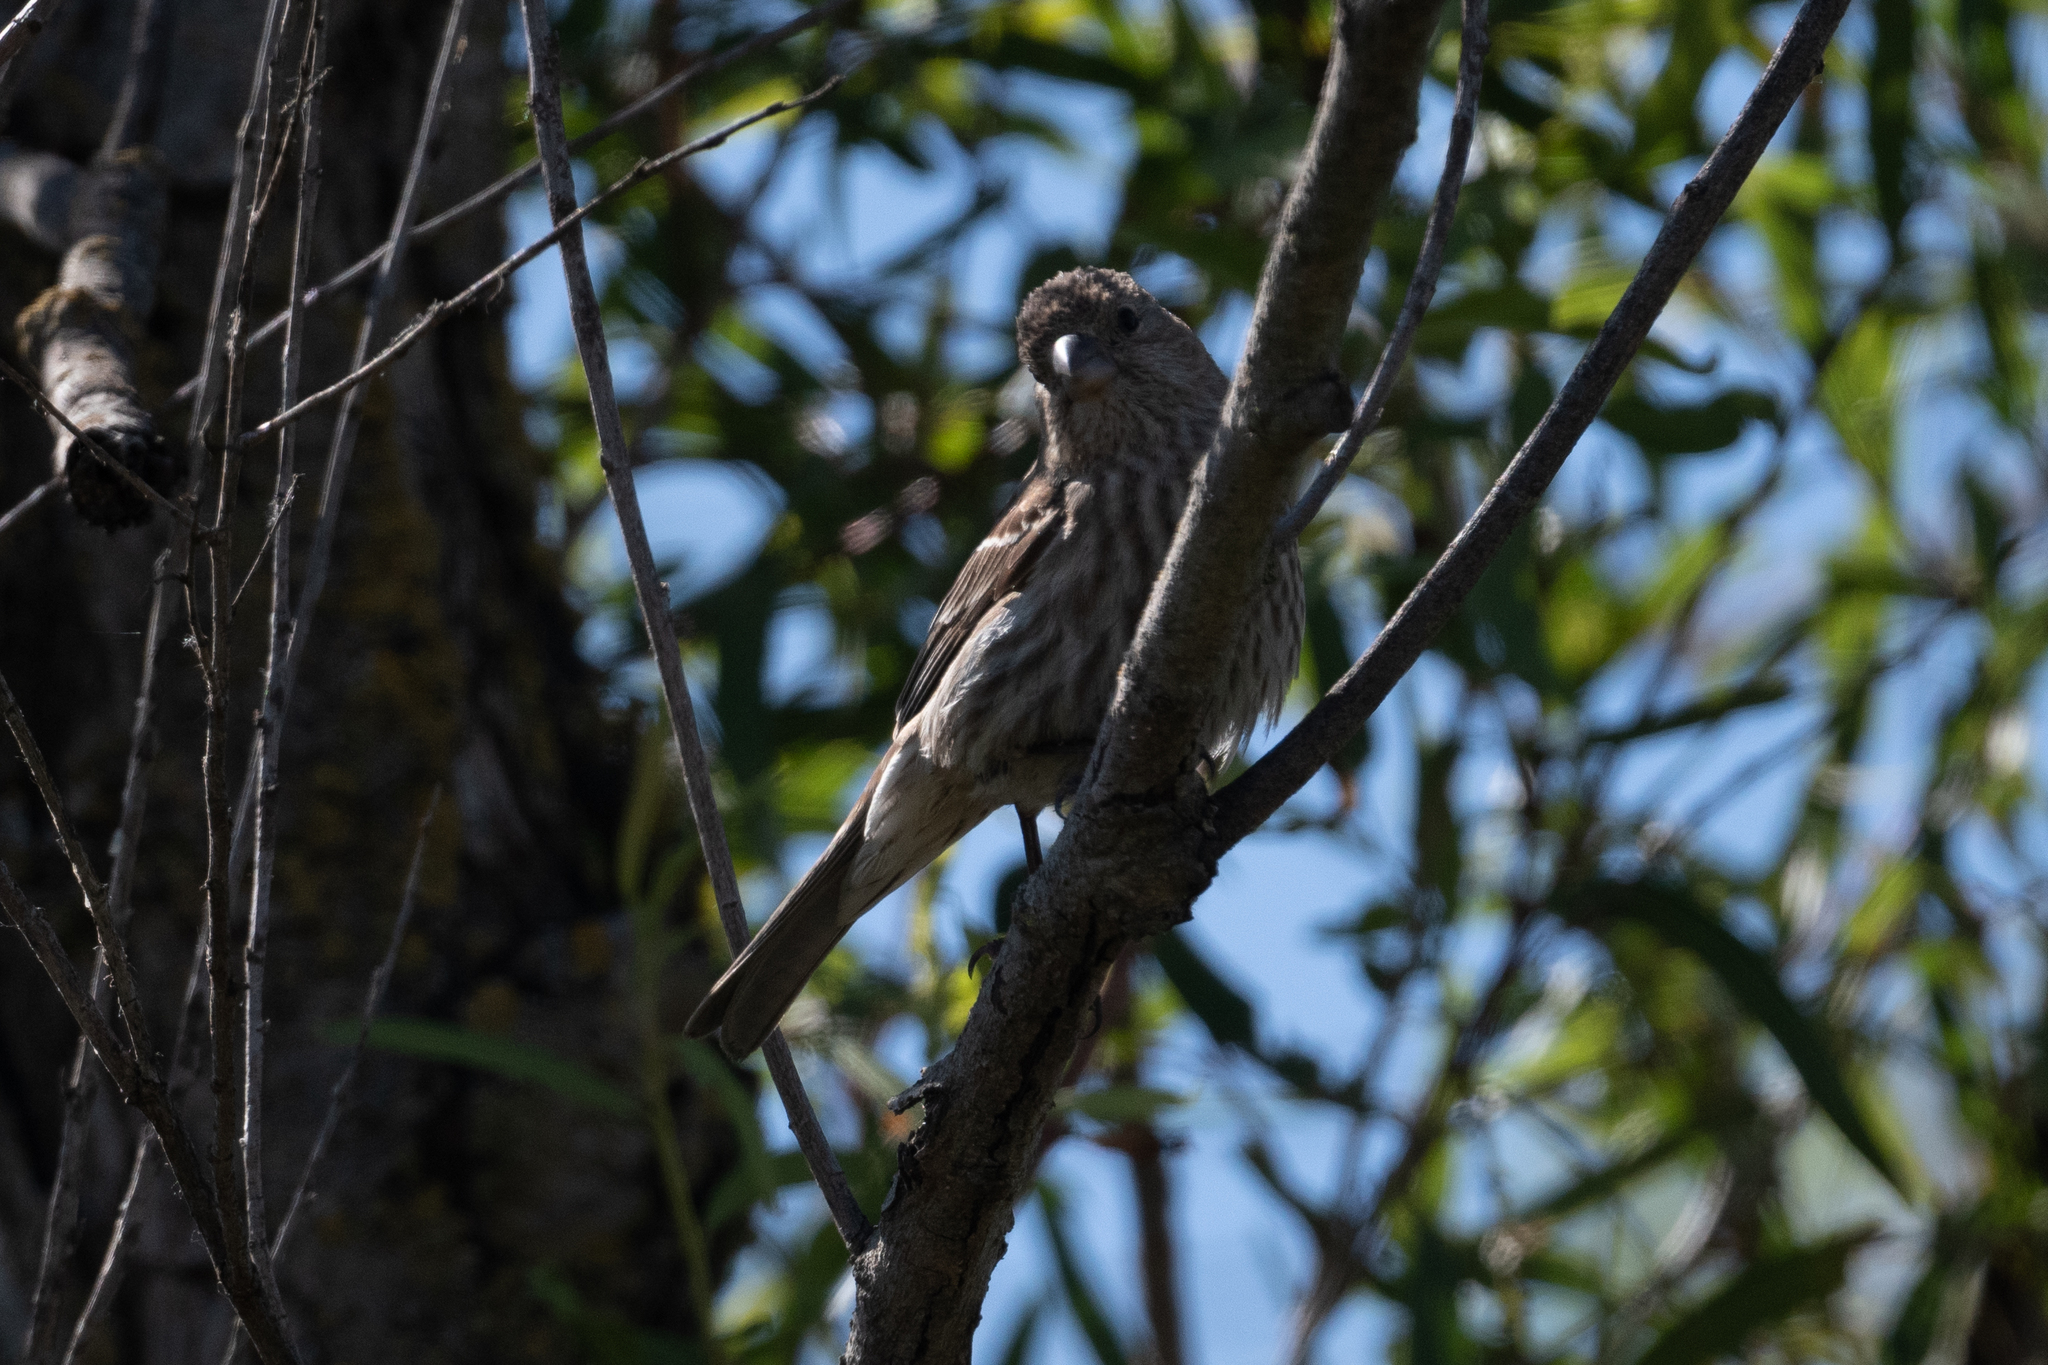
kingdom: Animalia
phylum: Chordata
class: Aves
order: Passeriformes
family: Fringillidae
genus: Haemorhous
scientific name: Haemorhous mexicanus
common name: House finch
